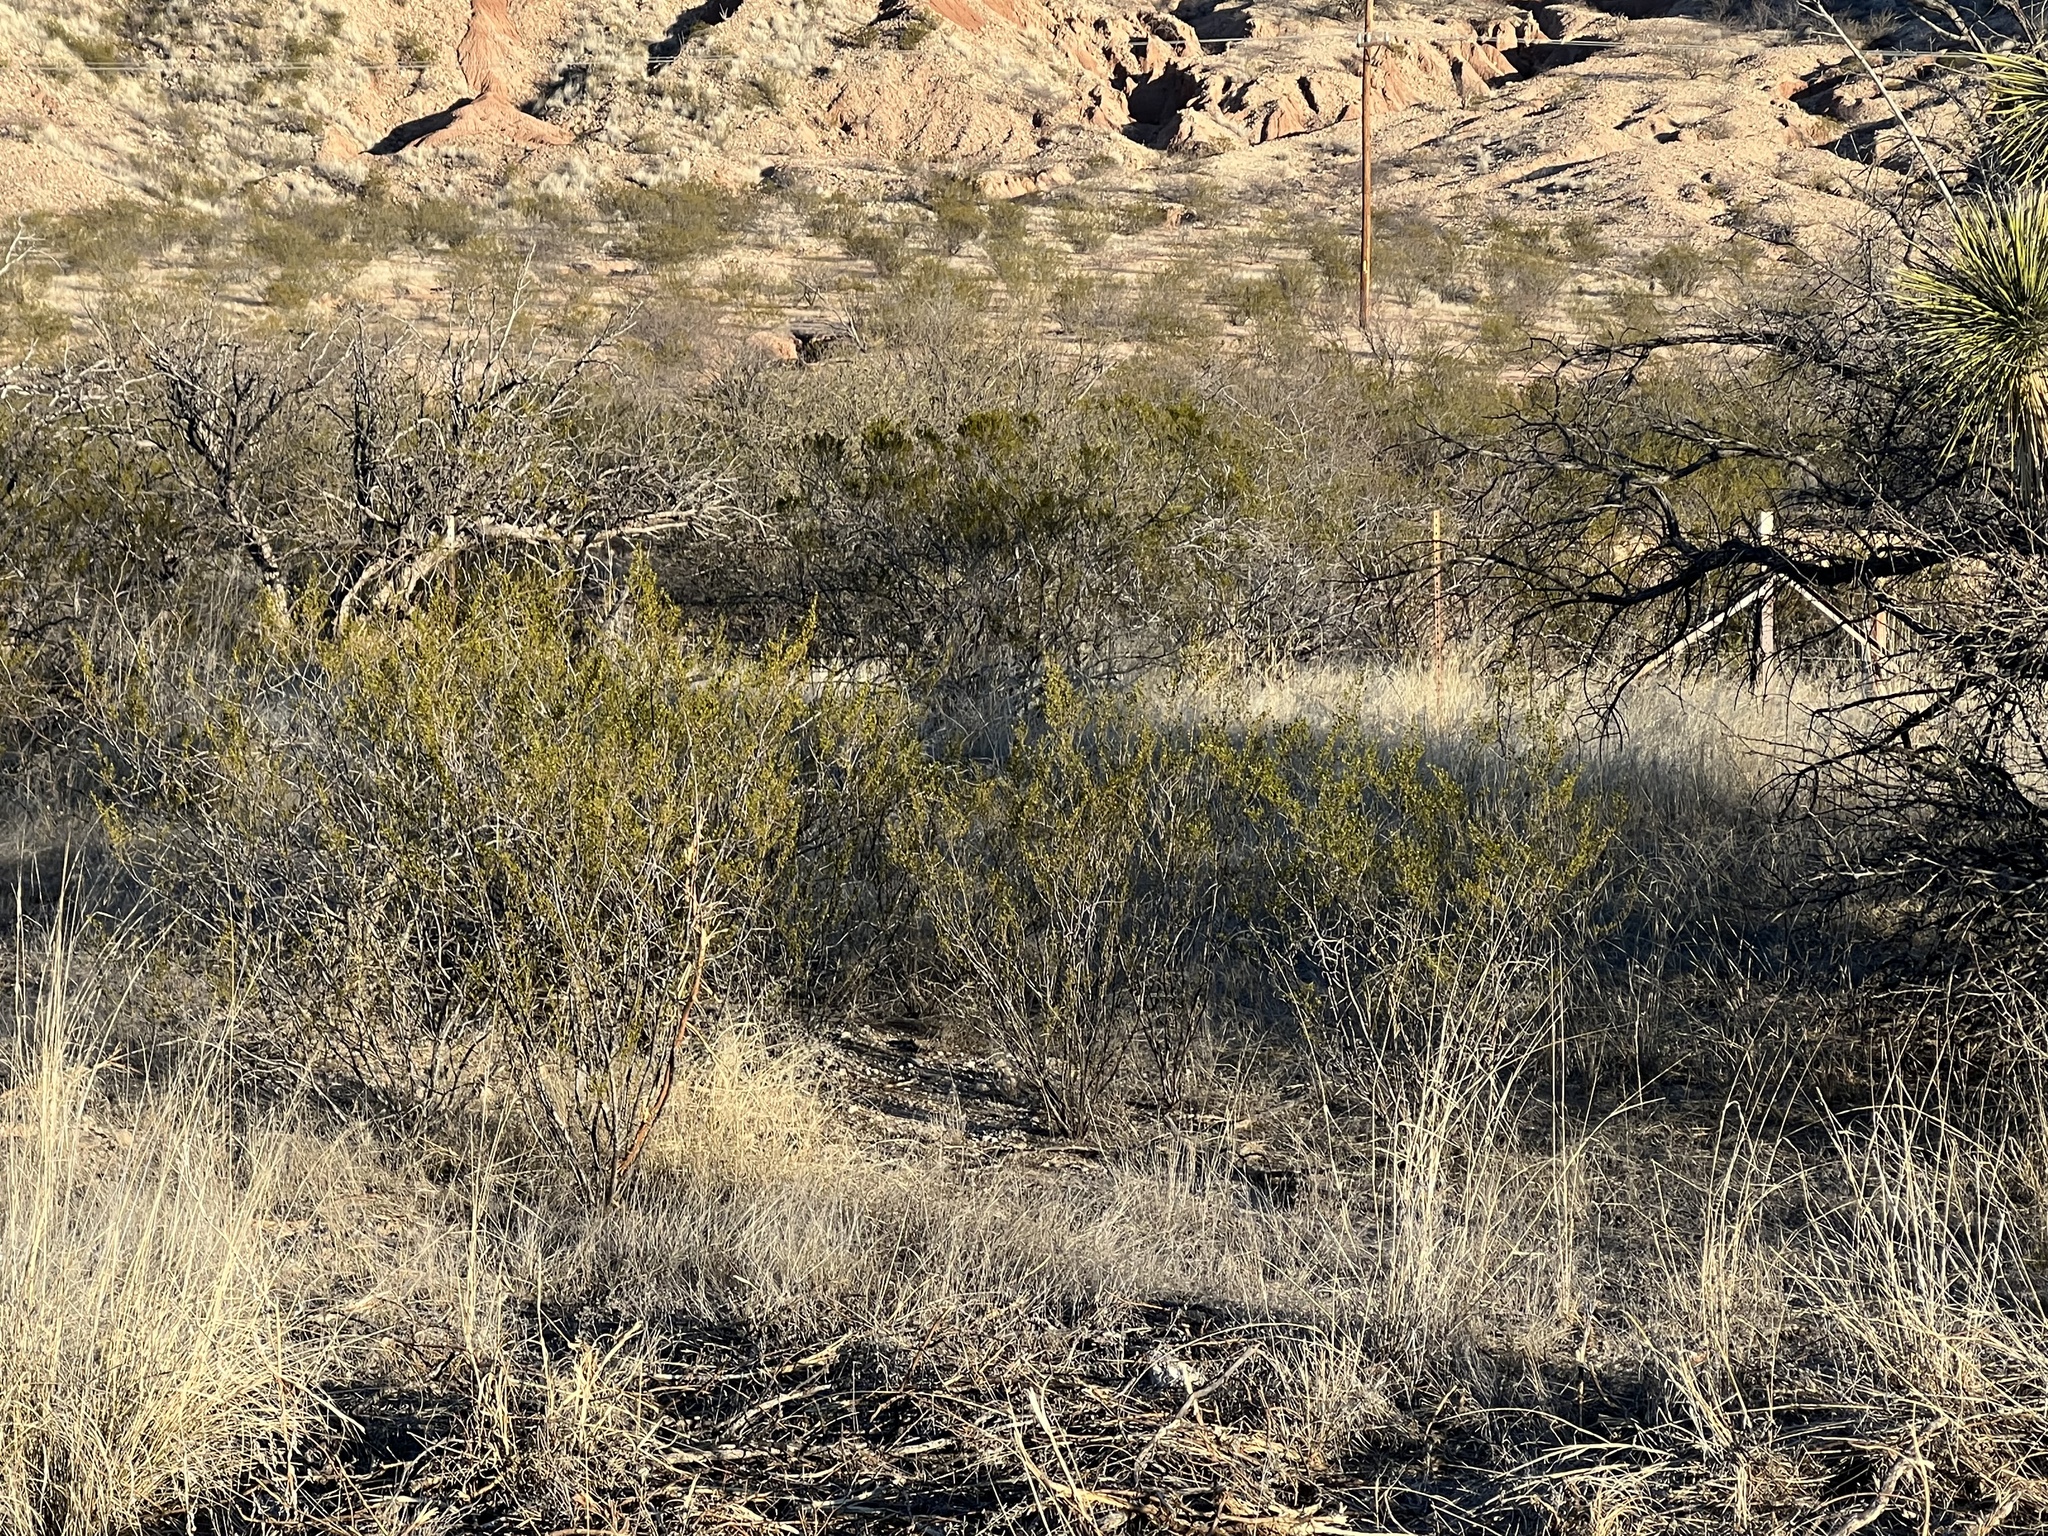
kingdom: Plantae
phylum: Tracheophyta
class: Magnoliopsida
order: Zygophyllales
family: Zygophyllaceae
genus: Larrea
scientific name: Larrea tridentata
